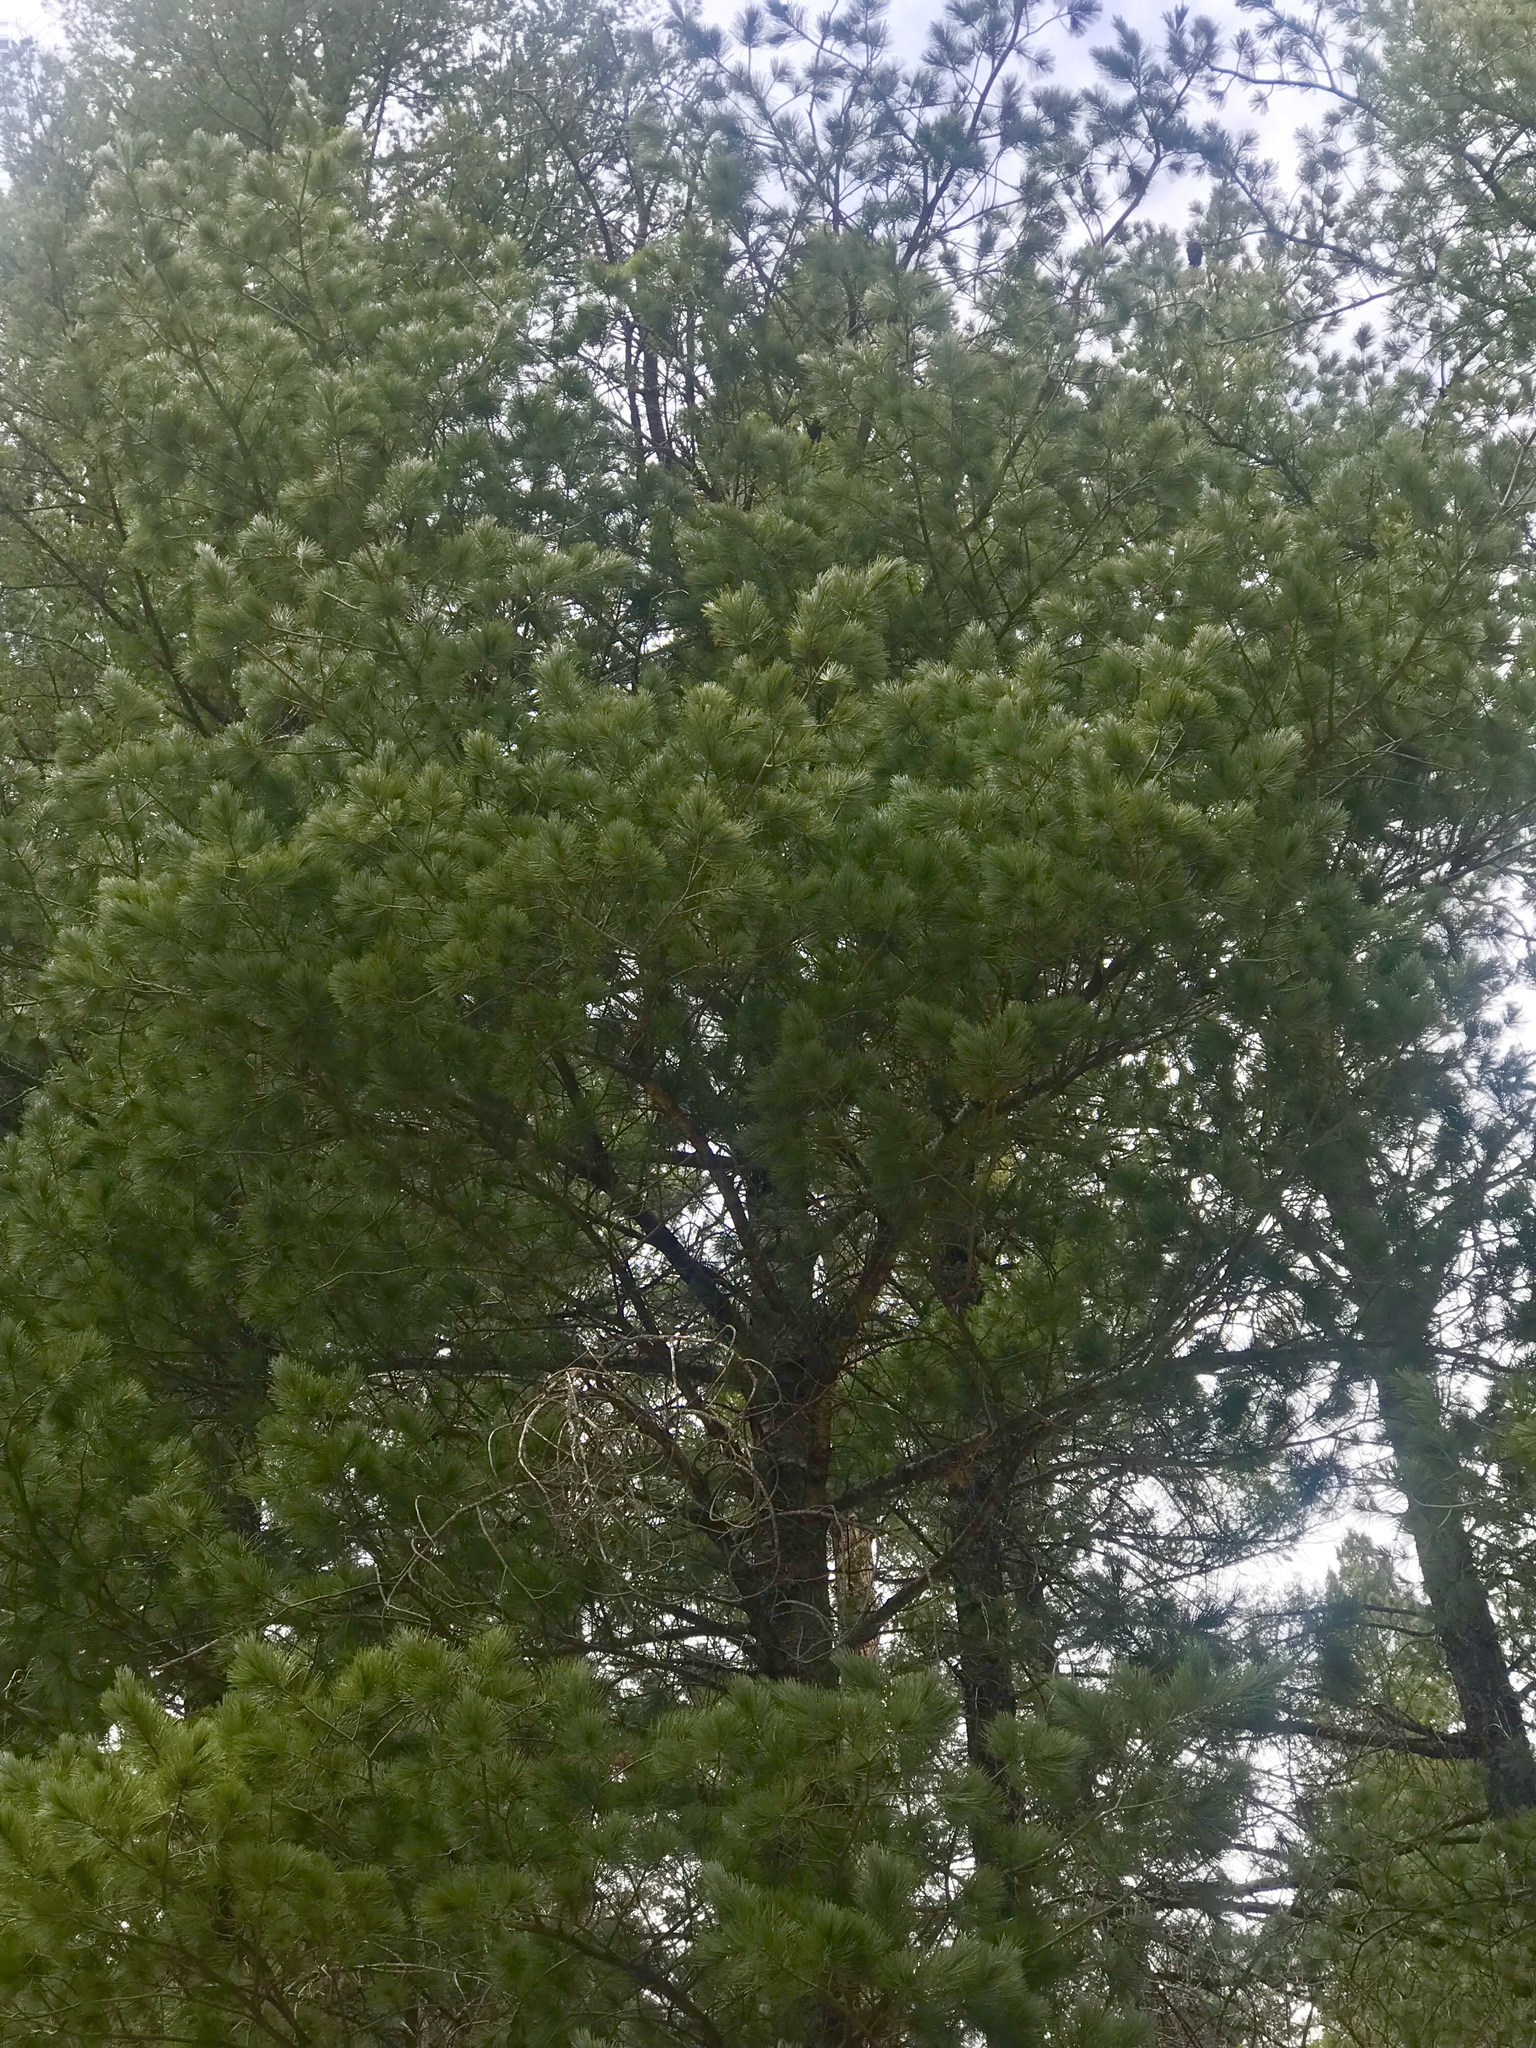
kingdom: Plantae
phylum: Tracheophyta
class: Pinopsida
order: Pinales
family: Pinaceae
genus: Pinus
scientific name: Pinus strobiformis
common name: Southwestern white pine
